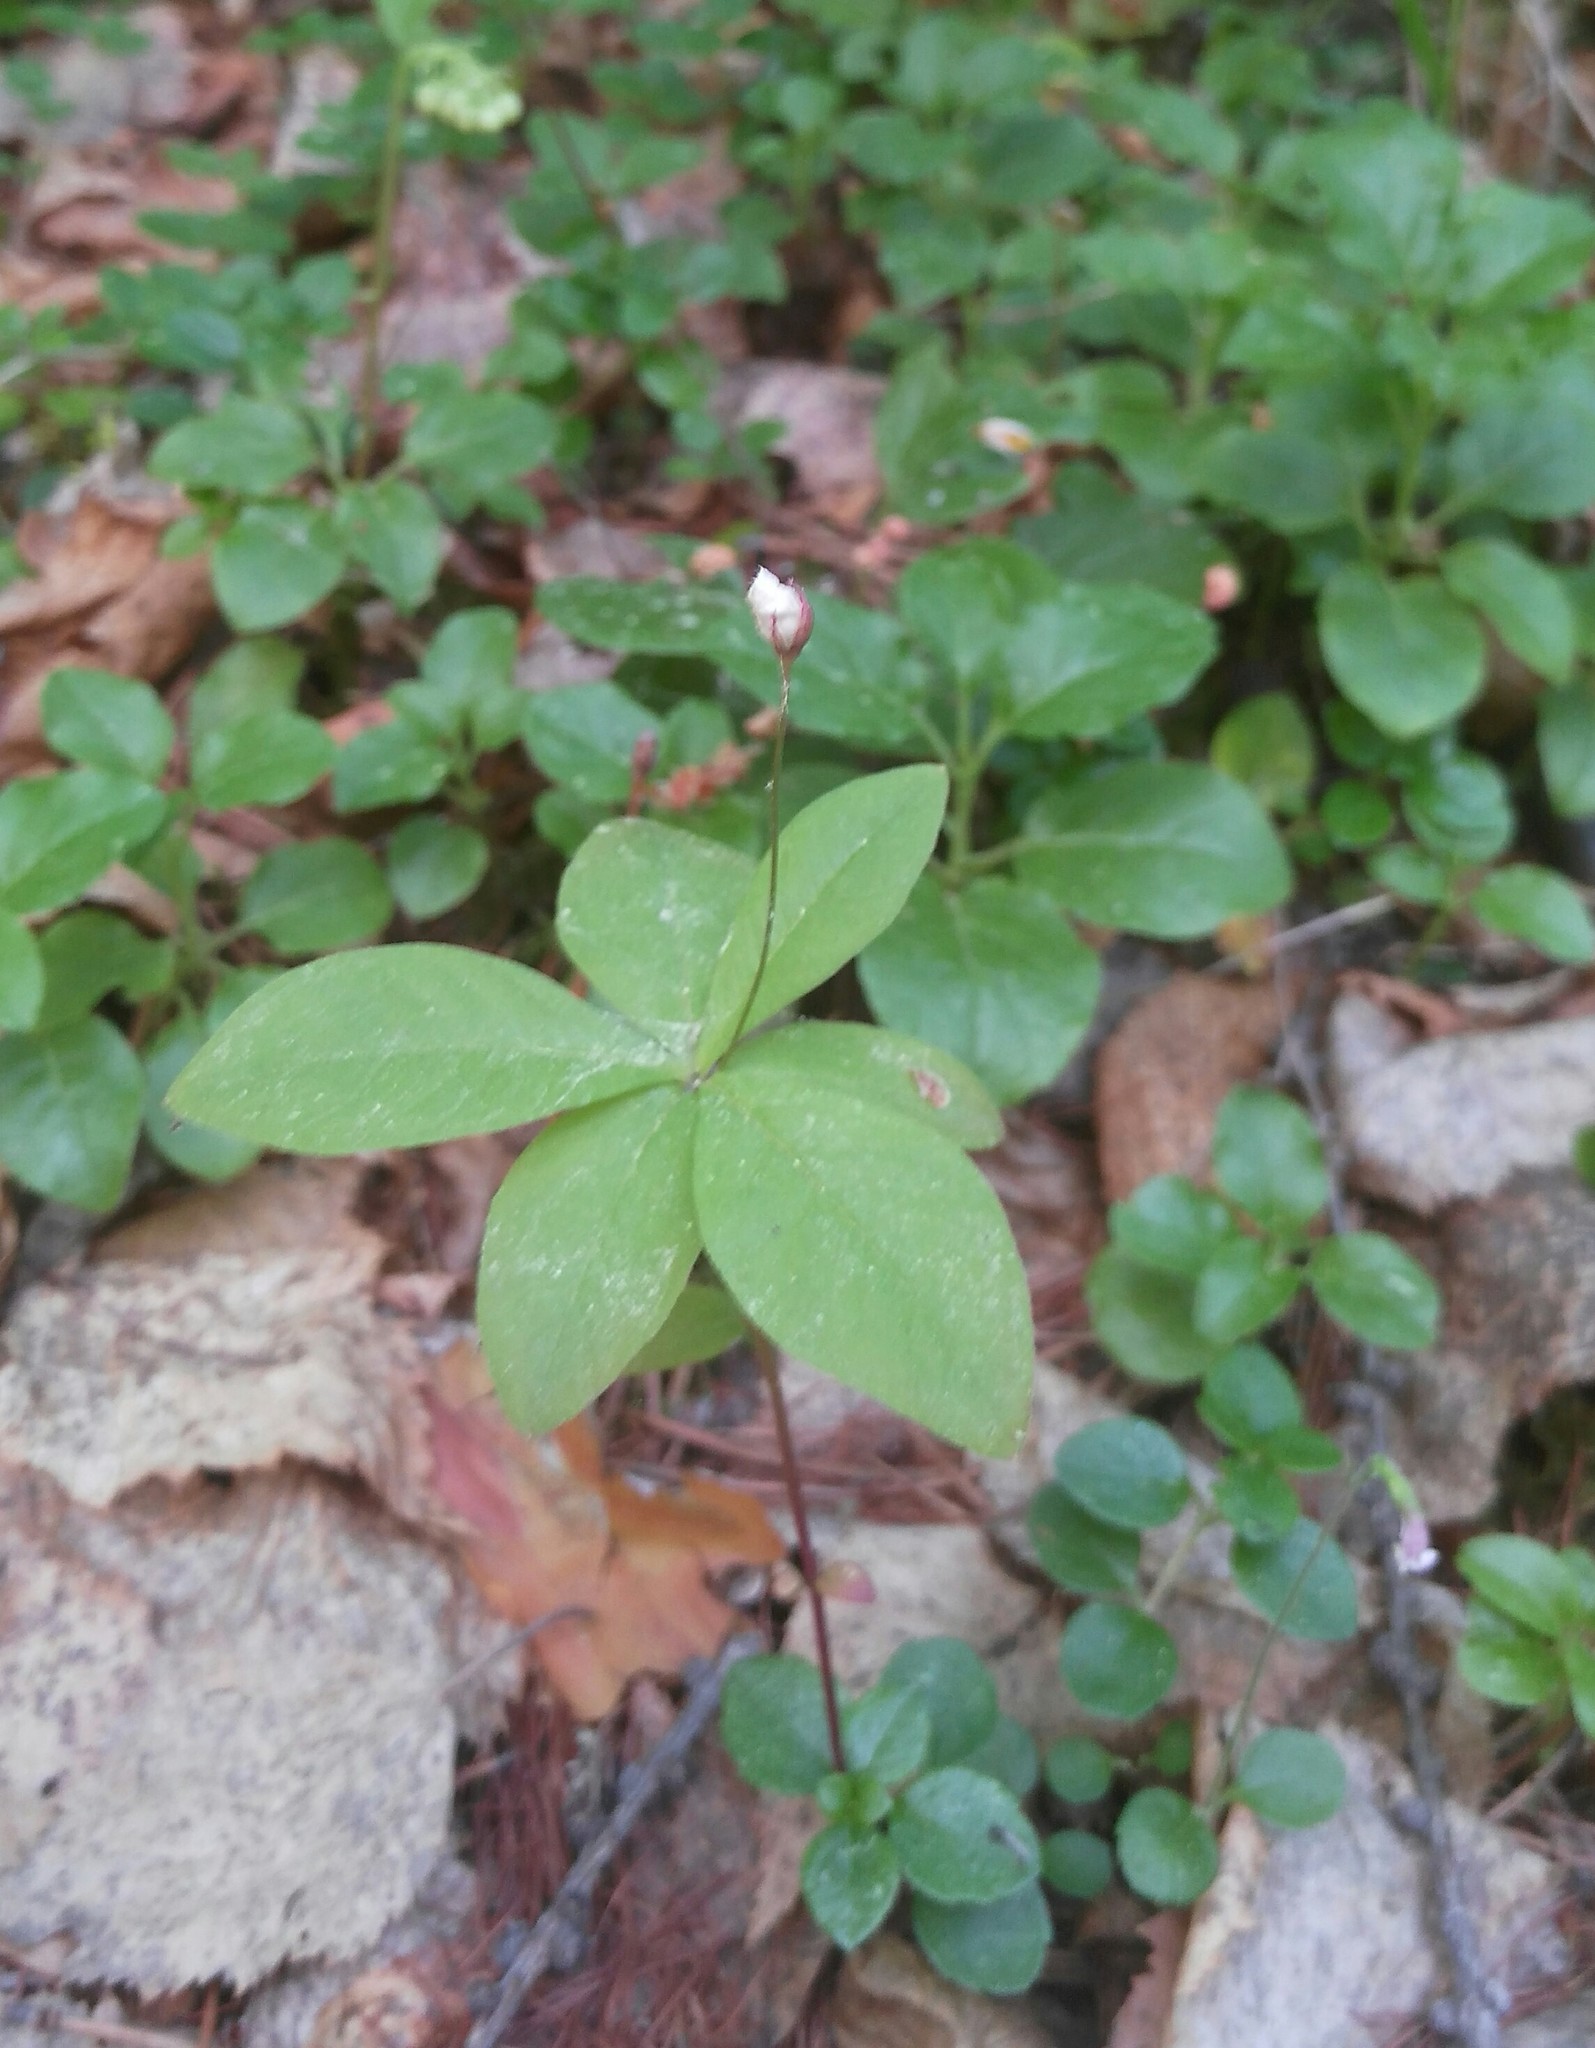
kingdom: Plantae
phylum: Tracheophyta
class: Magnoliopsida
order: Ericales
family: Primulaceae
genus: Lysimachia
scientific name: Lysimachia europaea
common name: Arctic starflower
